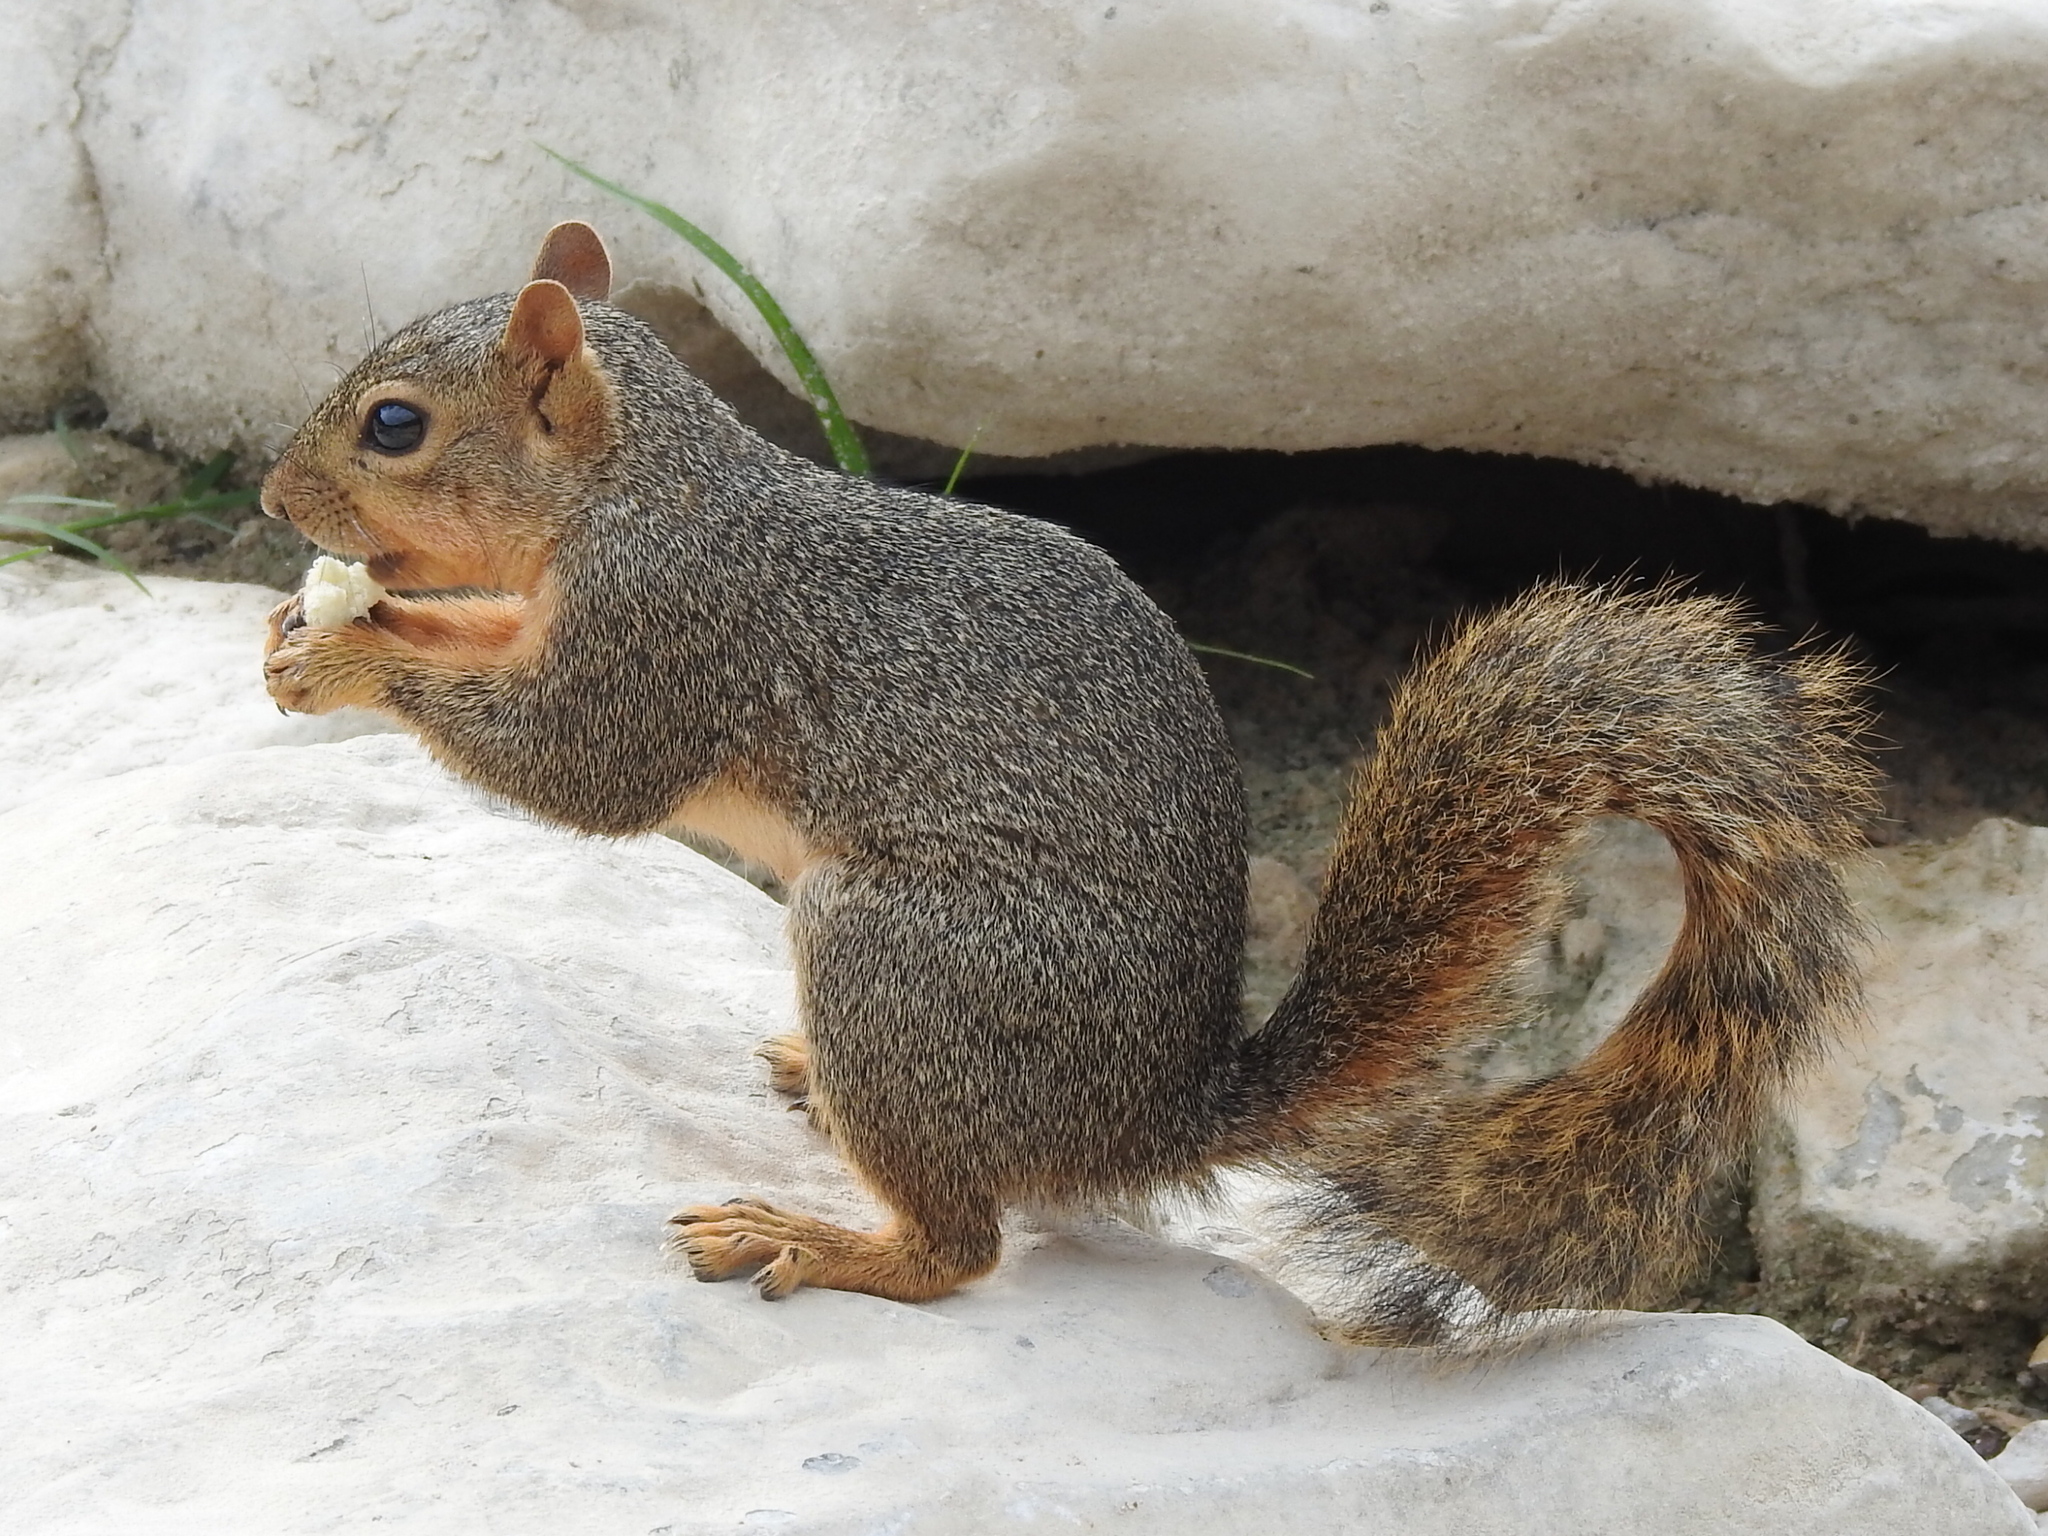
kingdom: Animalia
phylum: Chordata
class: Mammalia
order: Rodentia
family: Sciuridae
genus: Sciurus
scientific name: Sciurus niger
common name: Fox squirrel
